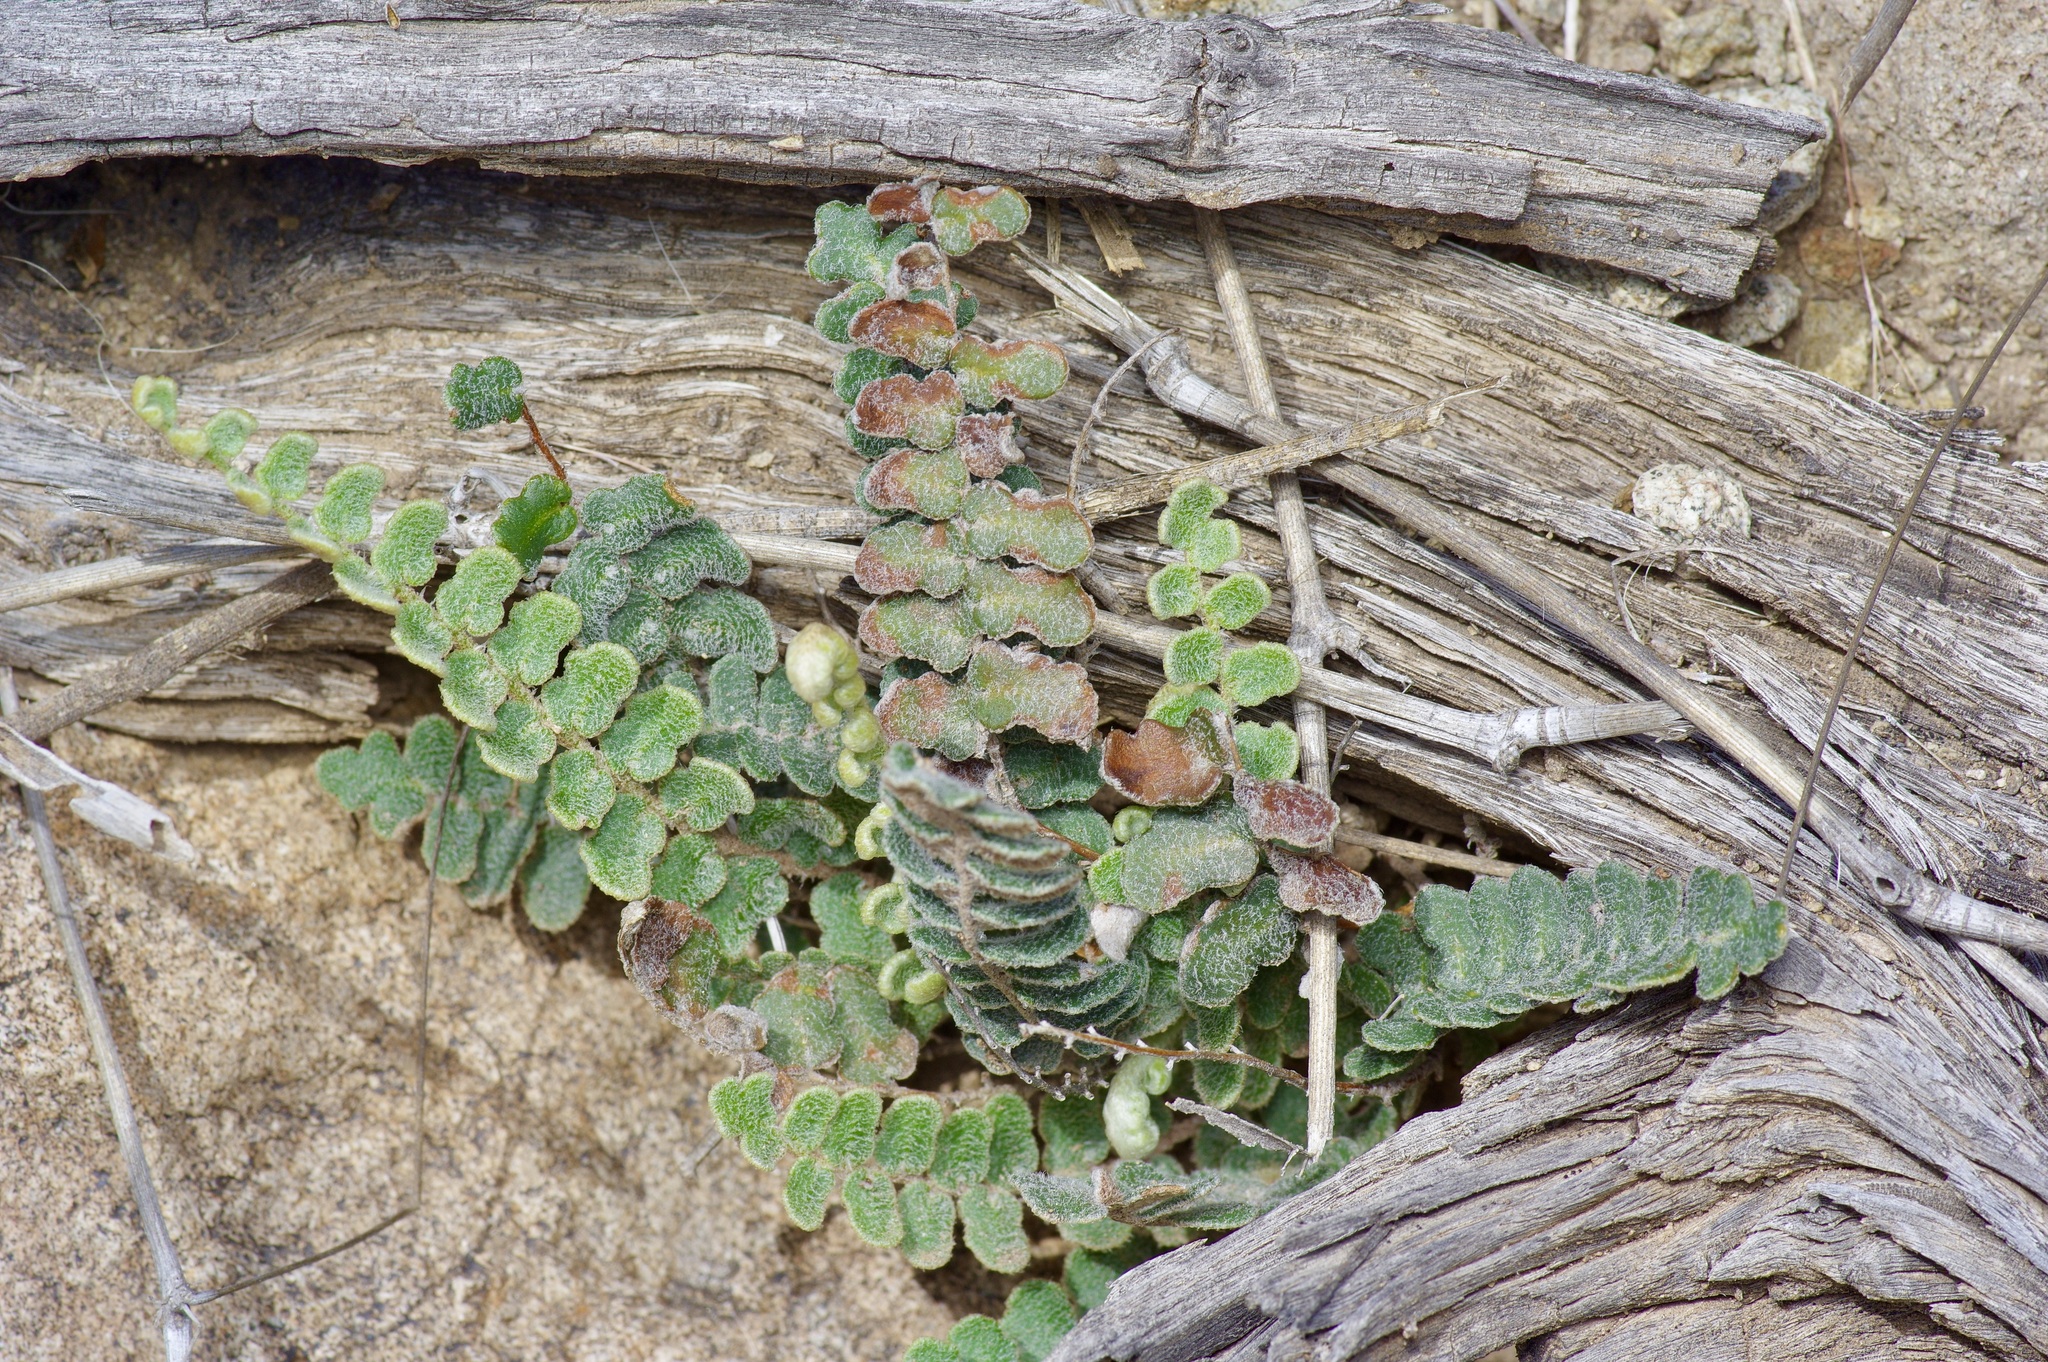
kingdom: Plantae
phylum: Tracheophyta
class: Polypodiopsida
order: Polypodiales
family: Pteridaceae
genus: Astrolepis
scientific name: Astrolepis cochisensis
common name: Scaly cloak fern
